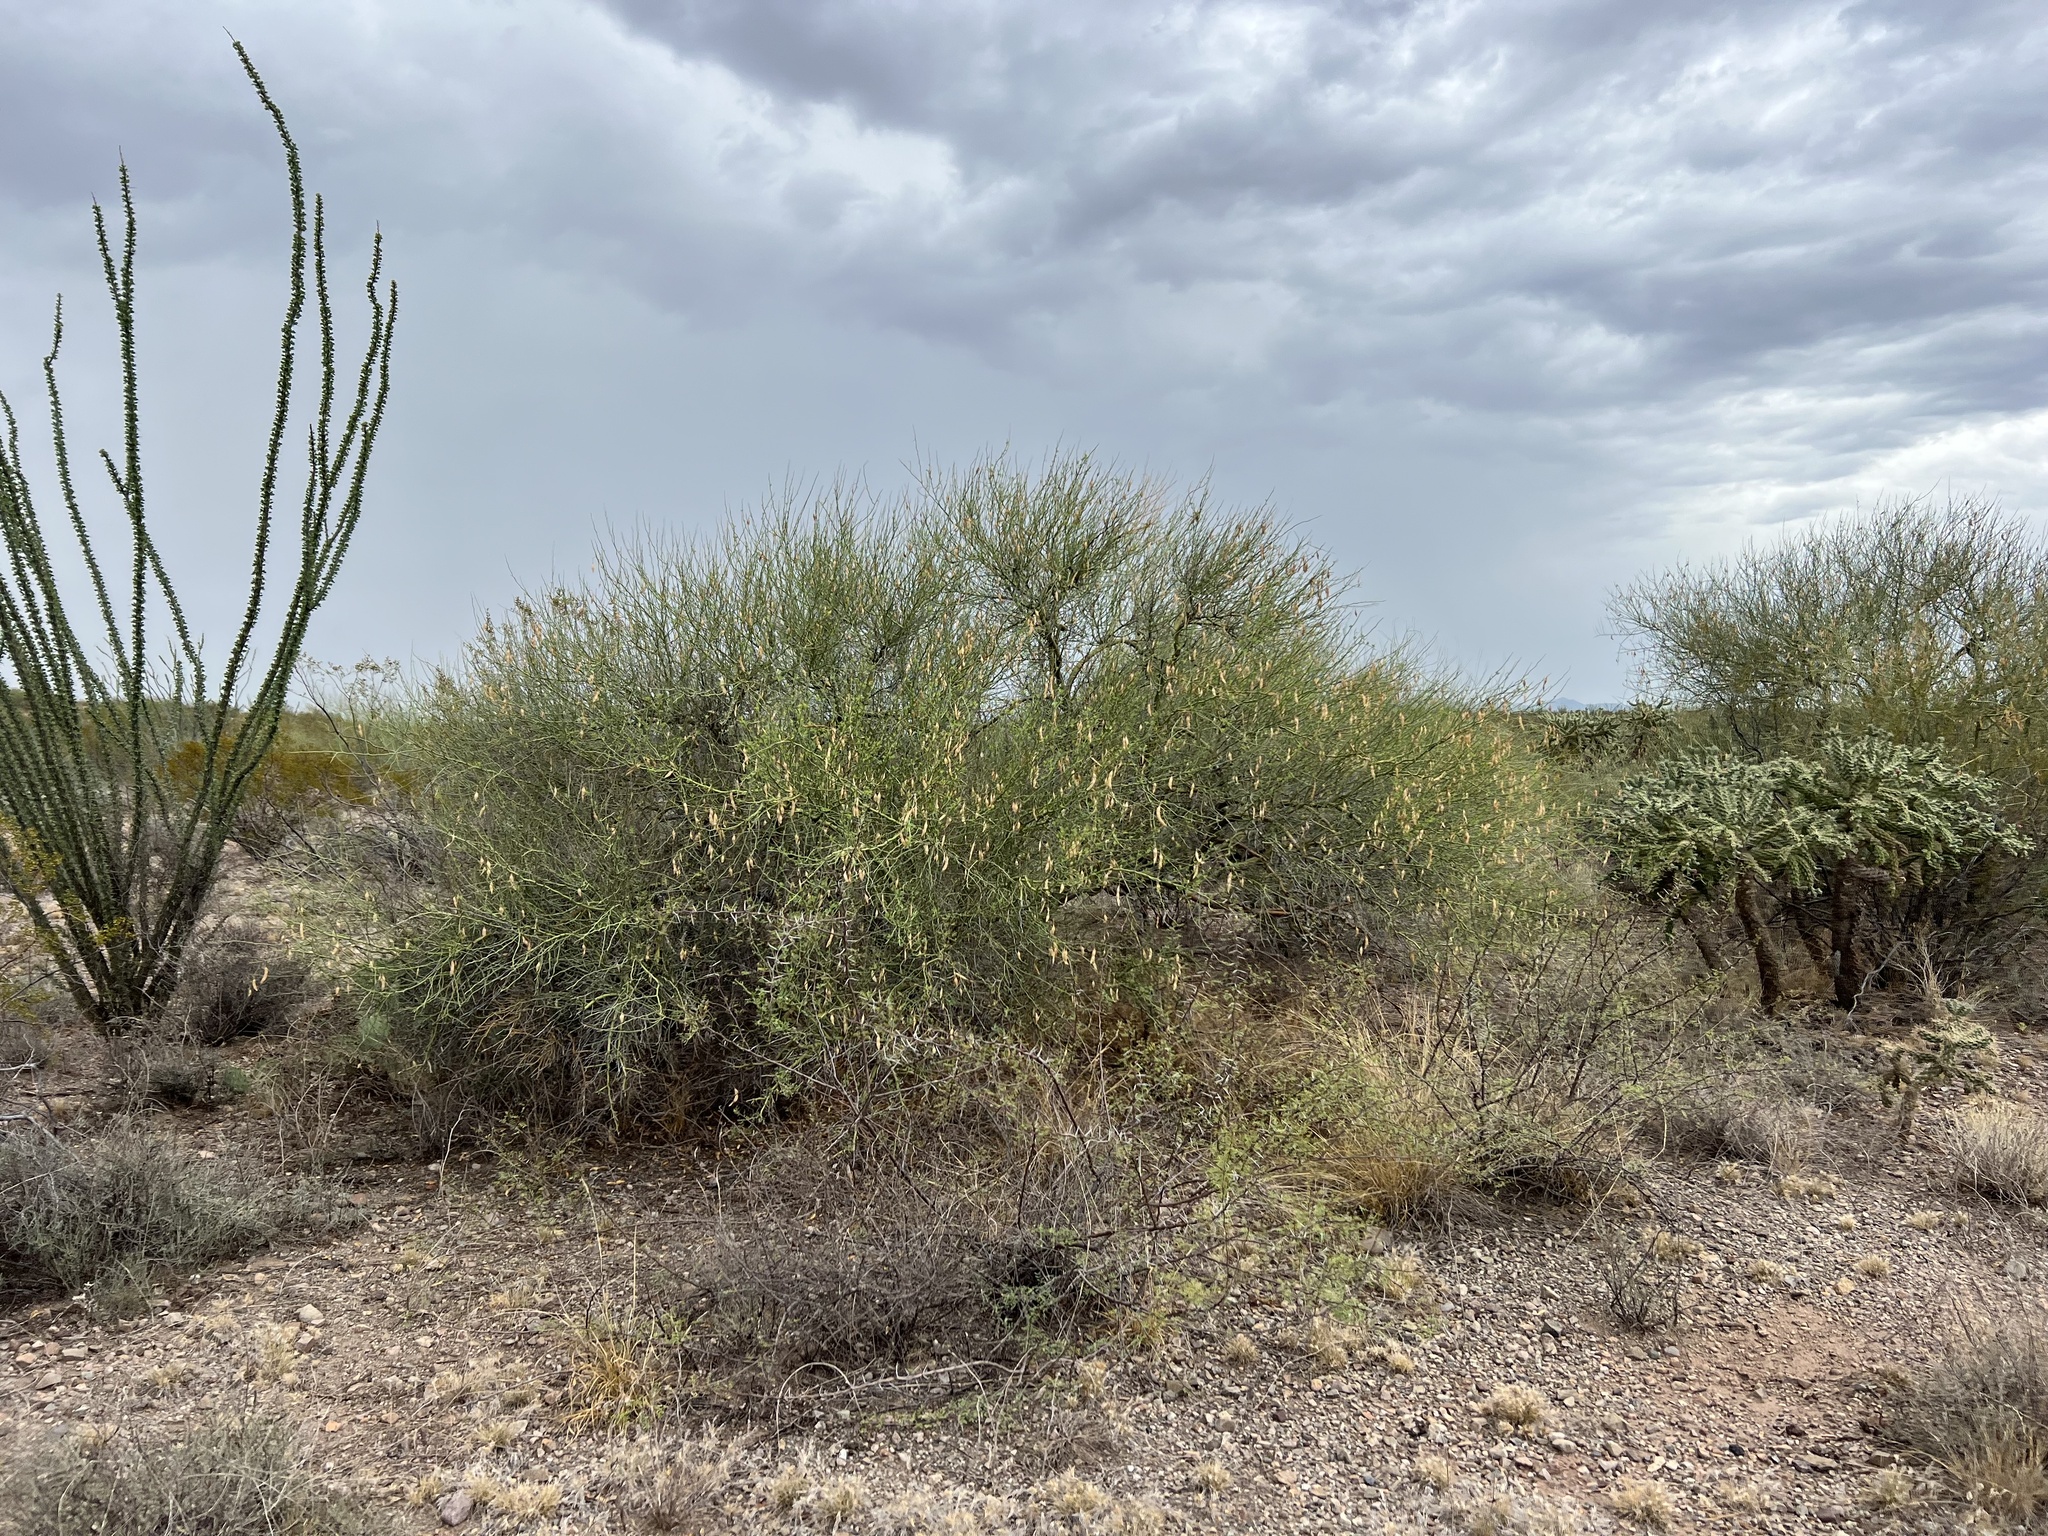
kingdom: Plantae
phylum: Tracheophyta
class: Magnoliopsida
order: Fabales
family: Fabaceae
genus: Parkinsonia
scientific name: Parkinsonia florida
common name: Blue paloverde
